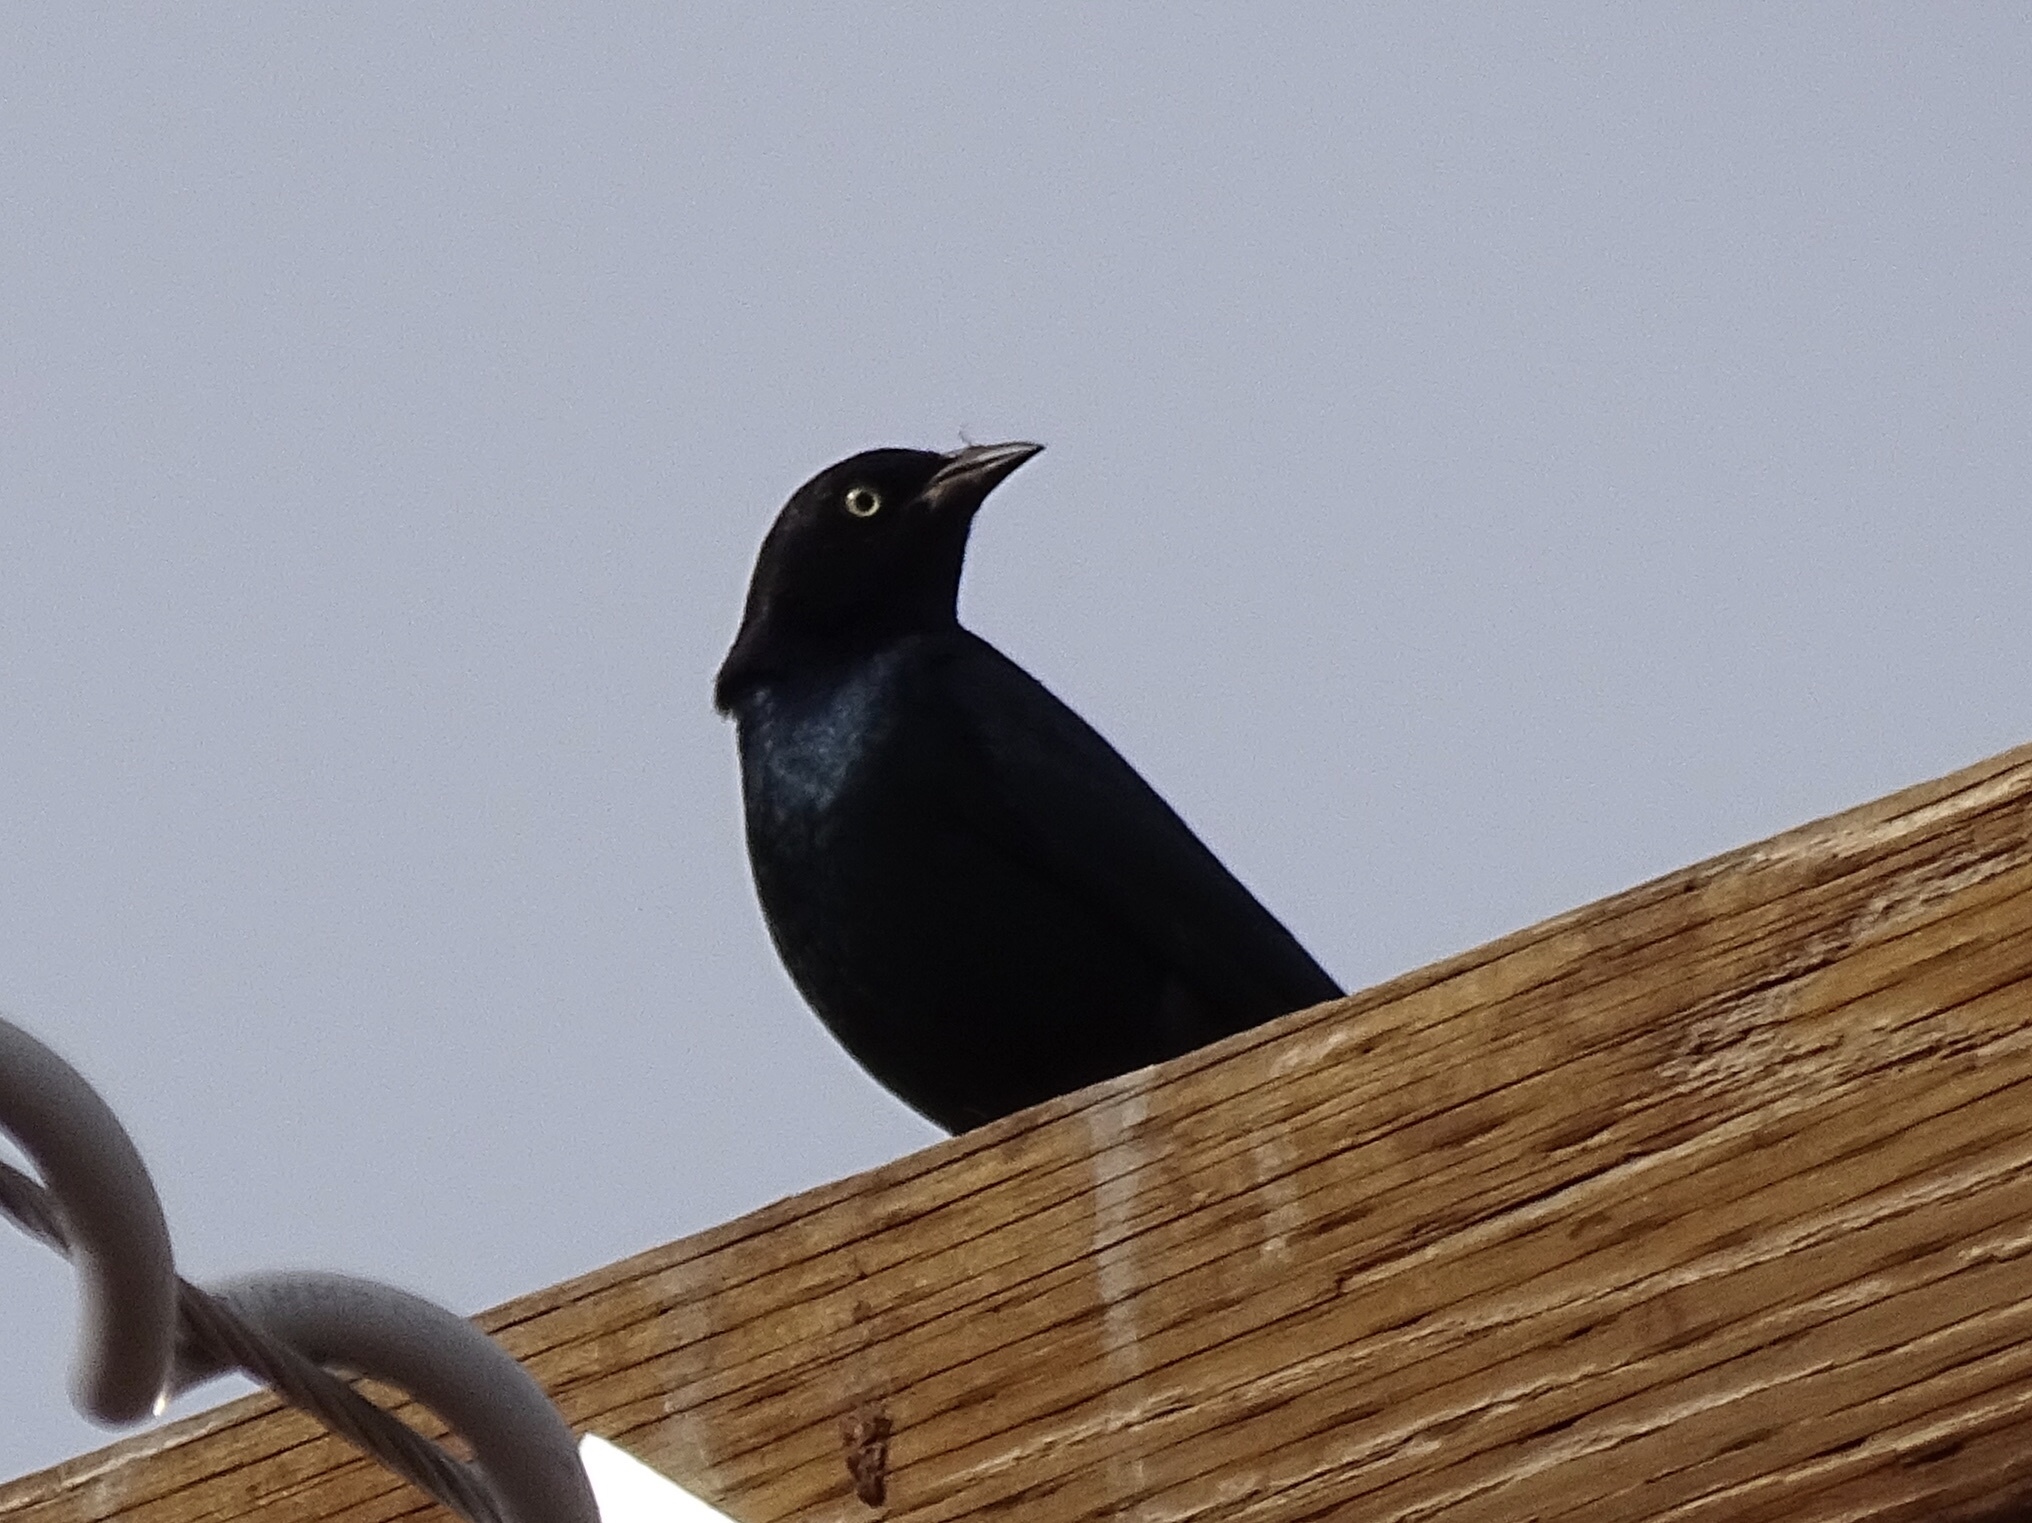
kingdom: Animalia
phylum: Chordata
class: Aves
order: Passeriformes
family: Icteridae
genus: Euphagus
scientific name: Euphagus cyanocephalus
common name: Brewer's blackbird
